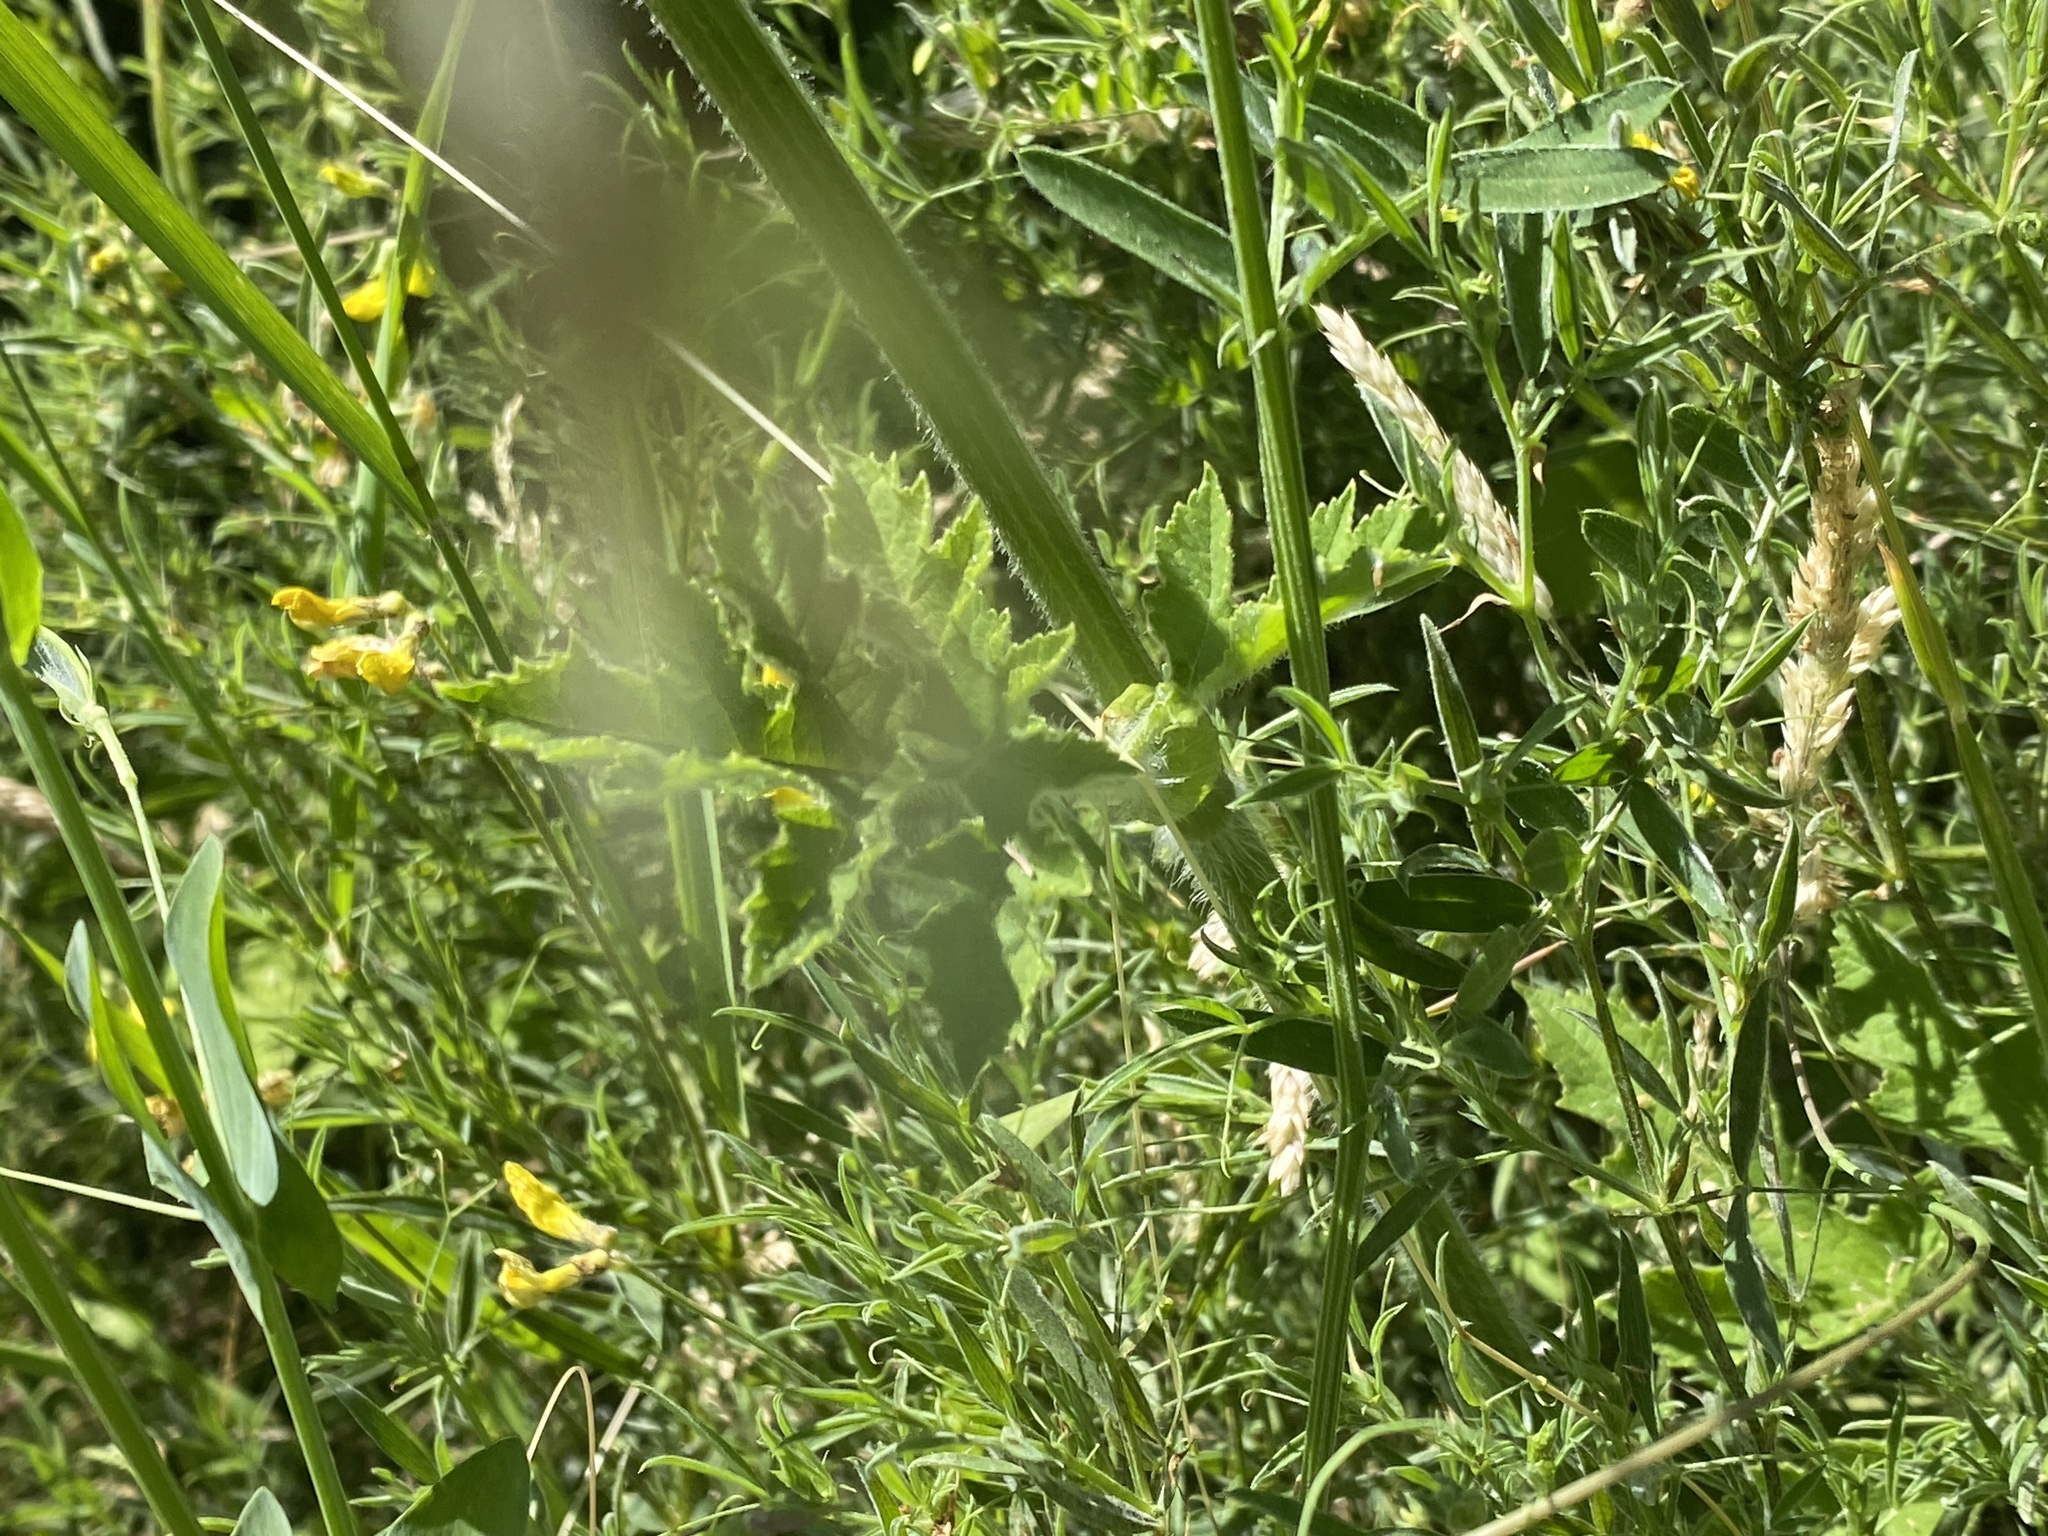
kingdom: Plantae
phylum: Tracheophyta
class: Magnoliopsida
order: Apiales
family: Apiaceae
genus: Heracleum
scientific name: Heracleum sphondylium
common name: Hogweed
